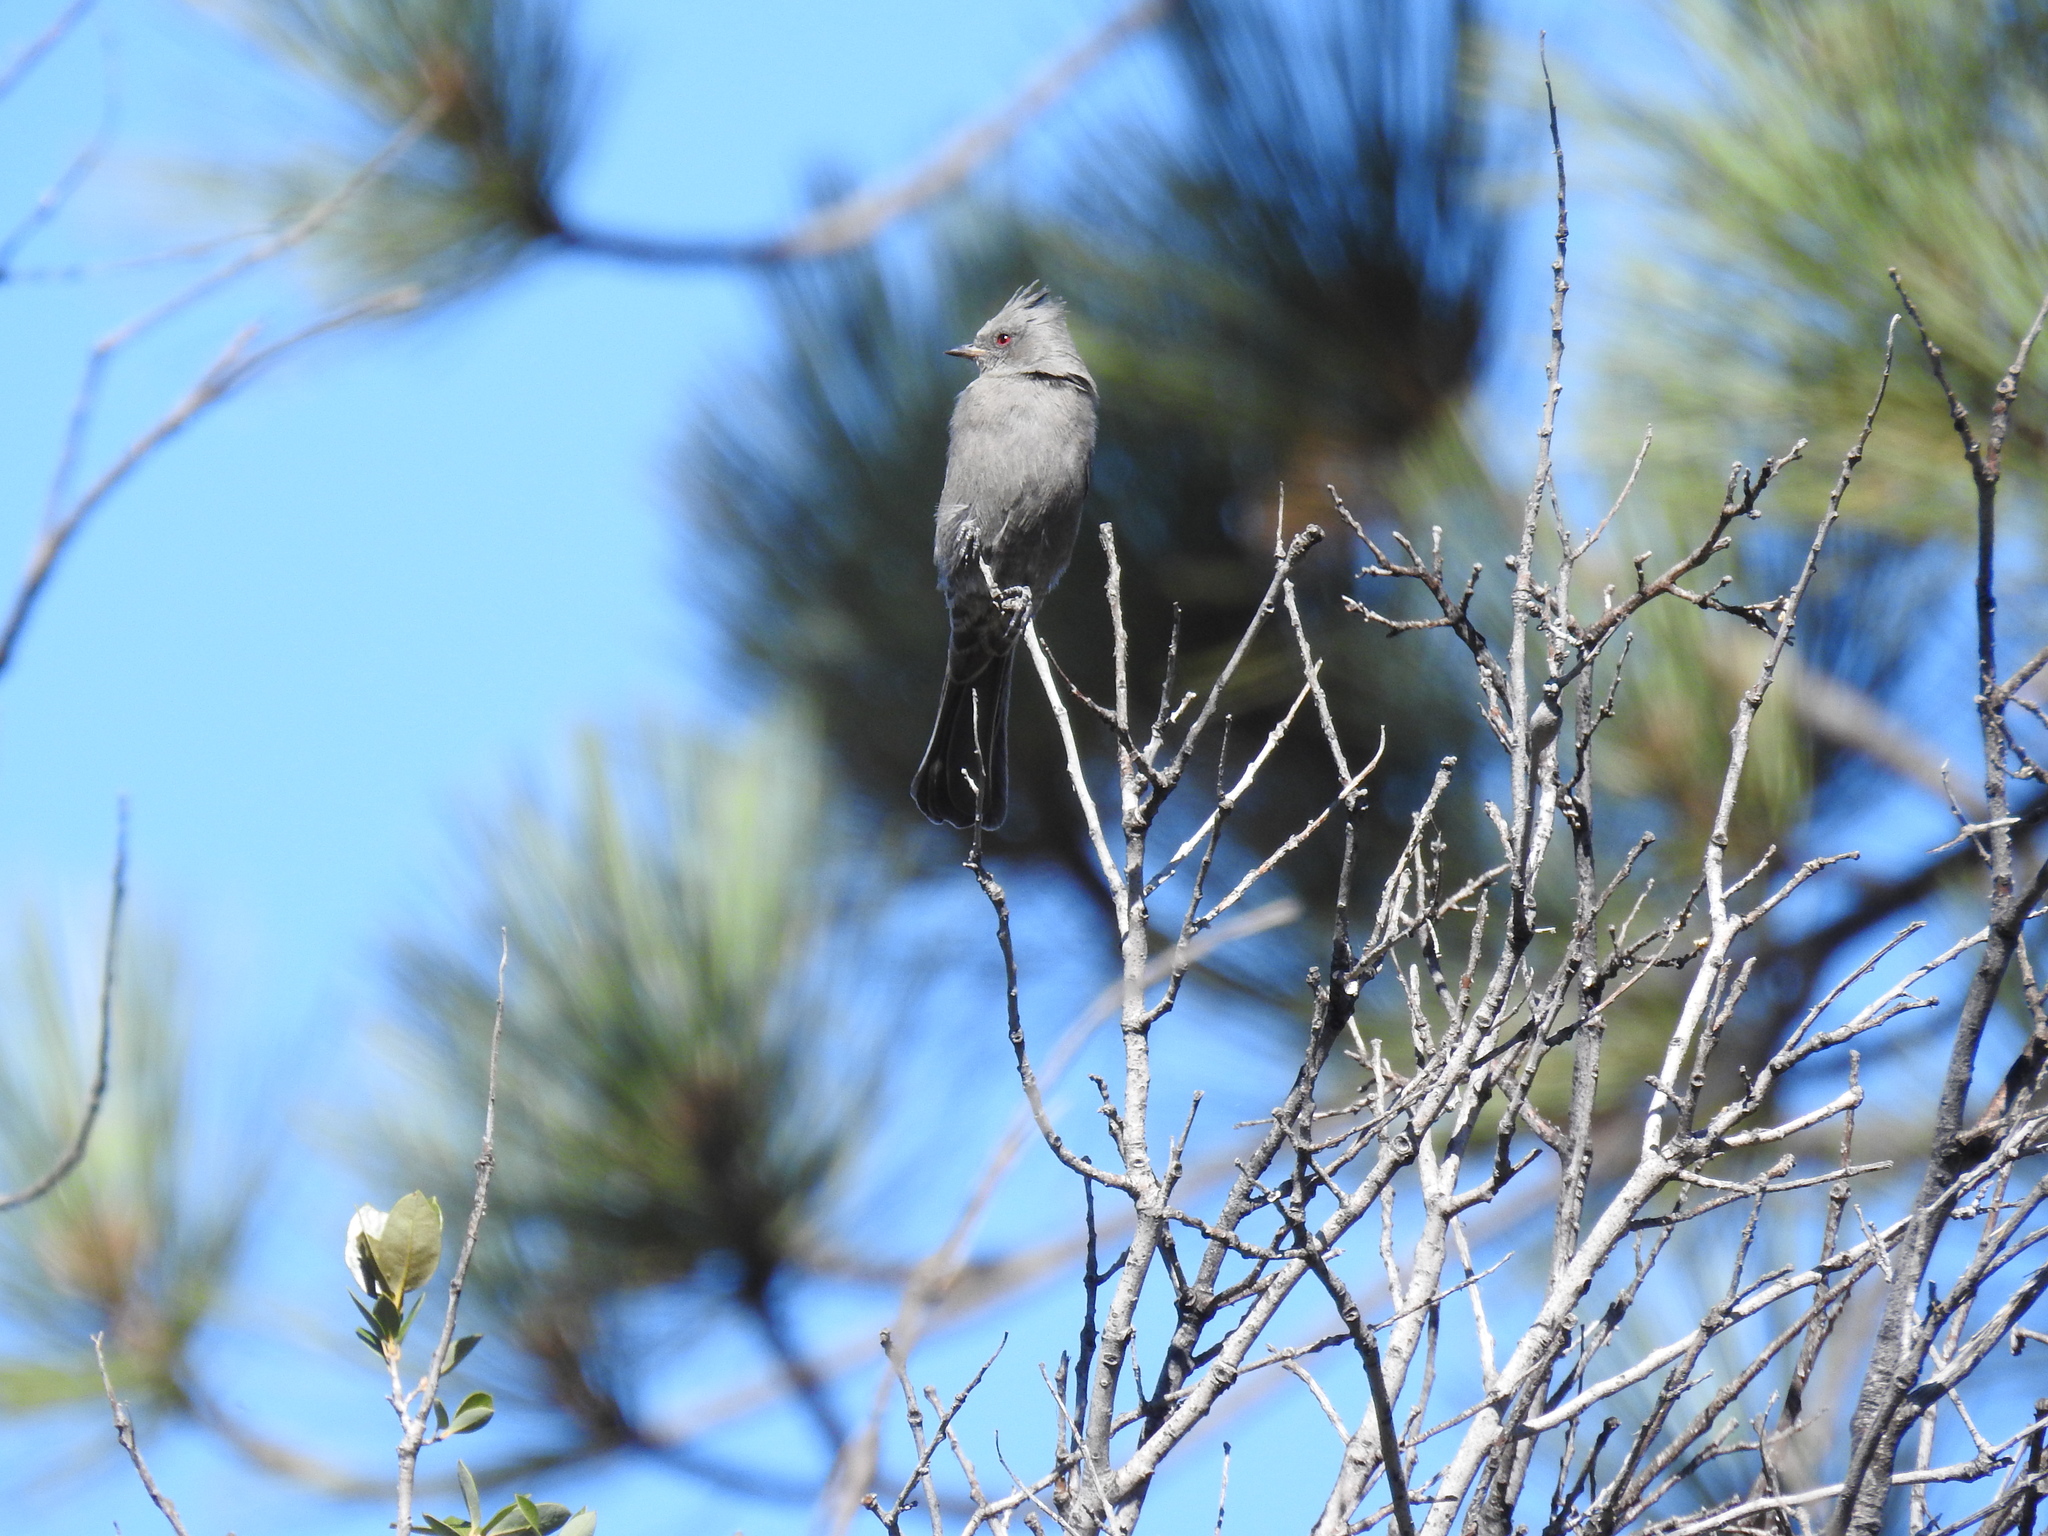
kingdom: Animalia
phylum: Chordata
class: Aves
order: Passeriformes
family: Ptilogonatidae
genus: Phainopepla
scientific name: Phainopepla nitens
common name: Phainopepla
